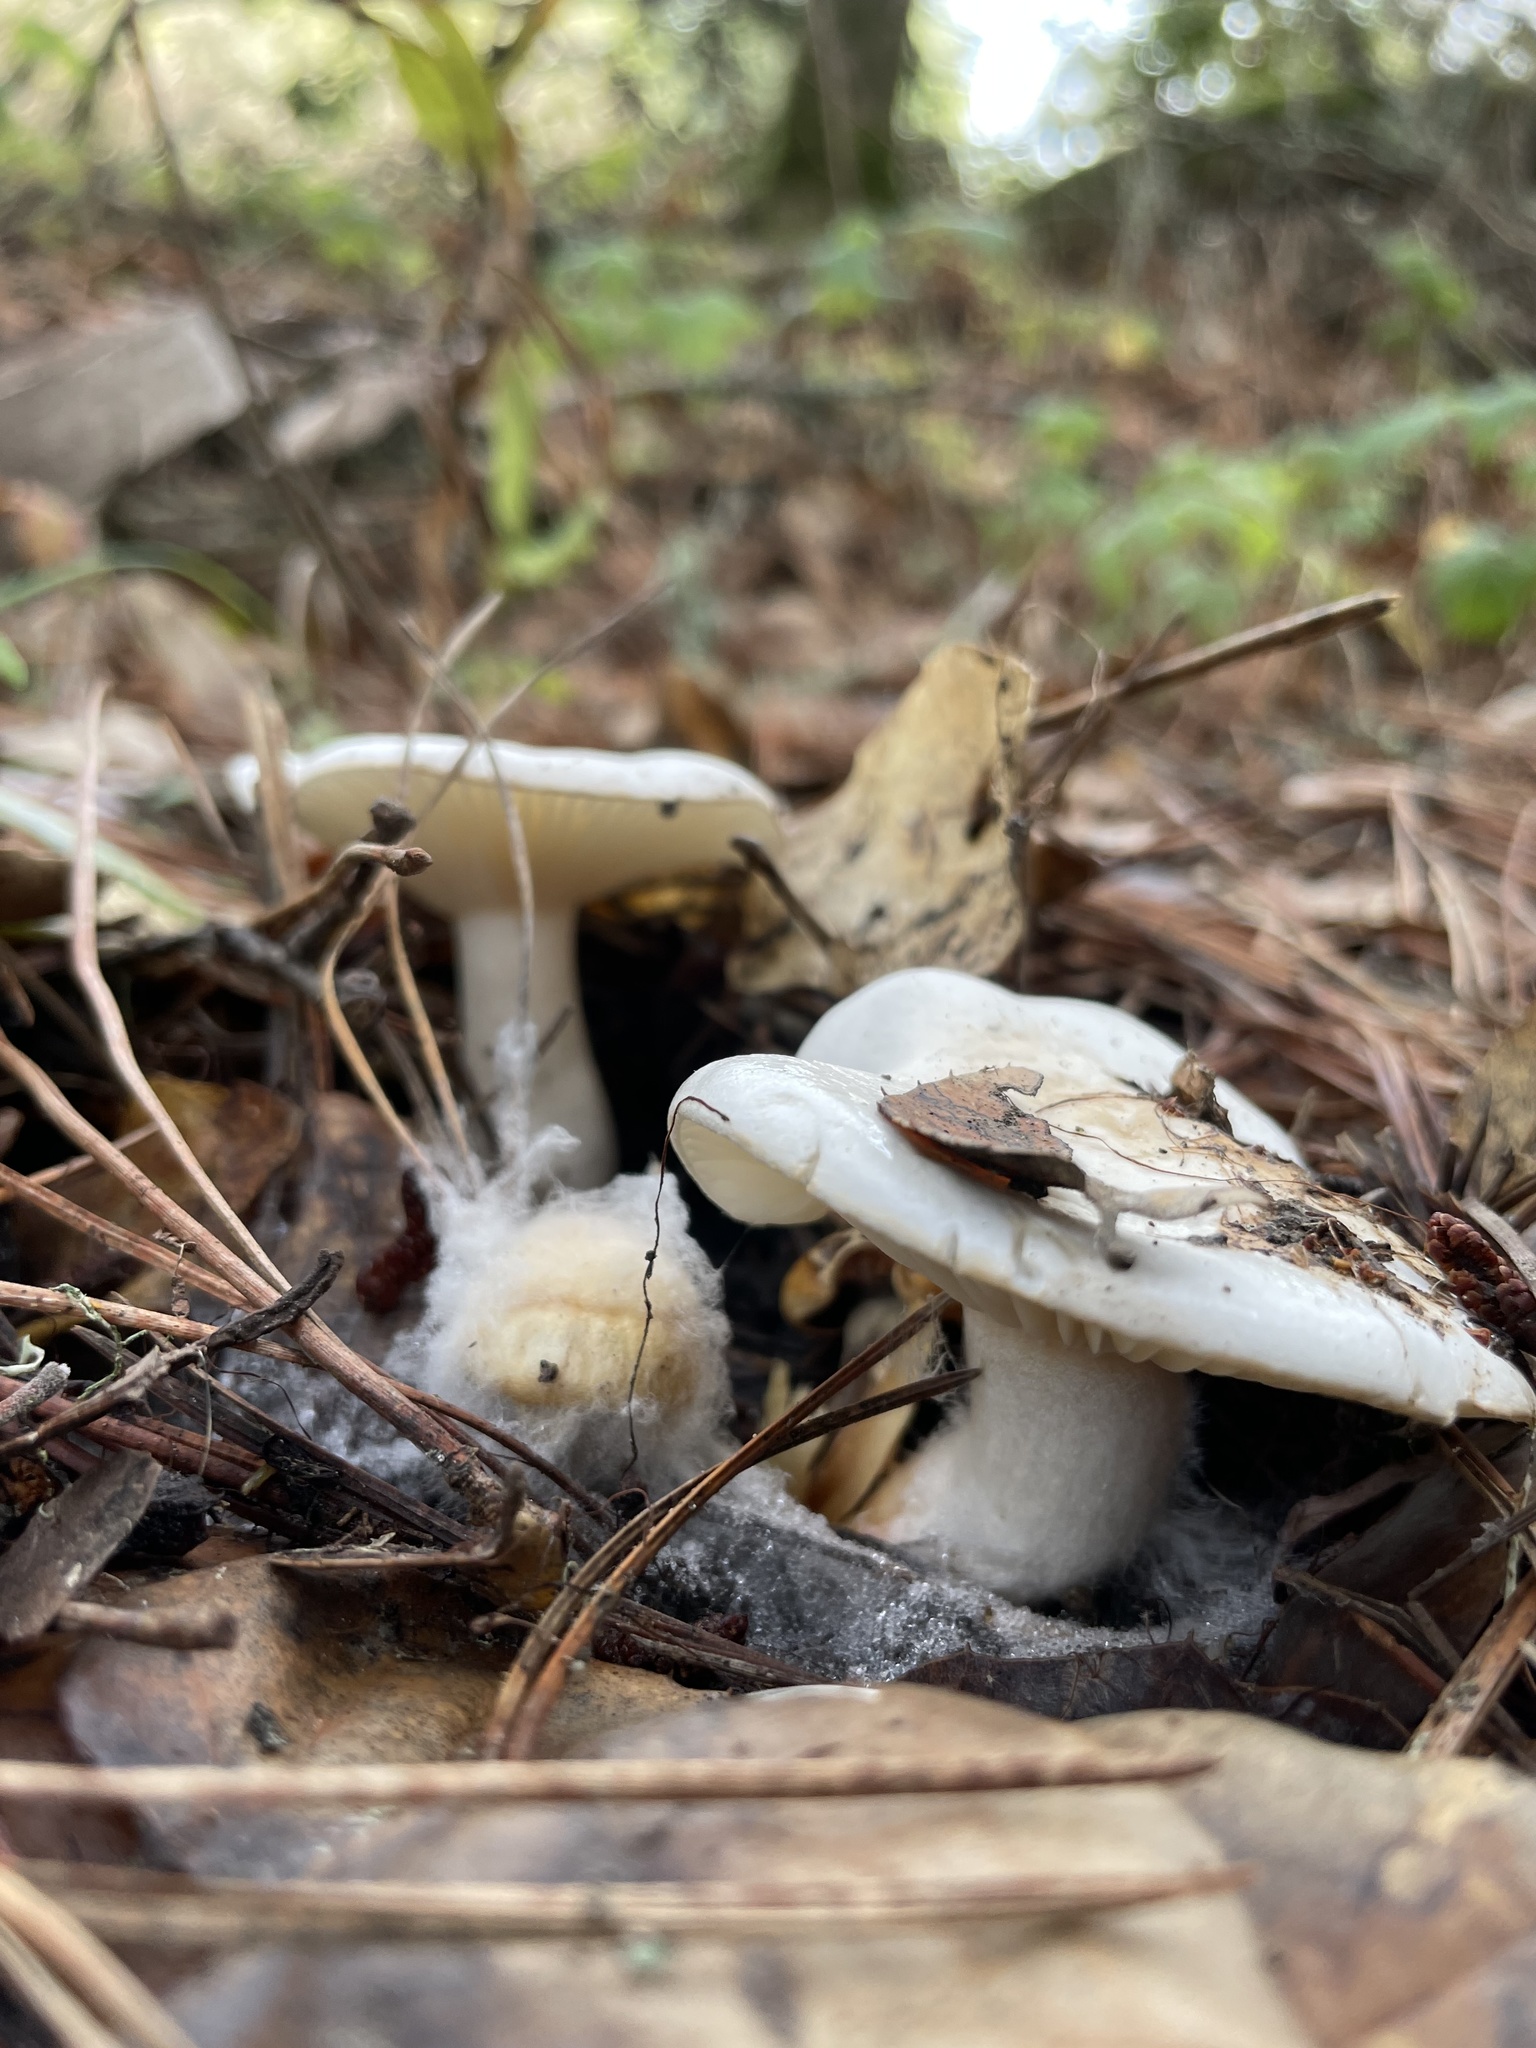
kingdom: Fungi
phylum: Basidiomycota
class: Agaricomycetes
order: Agaricales
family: Hygrophoraceae
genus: Hygrophorus
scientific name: Hygrophorus eburneus
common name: Ivory wax-cap
